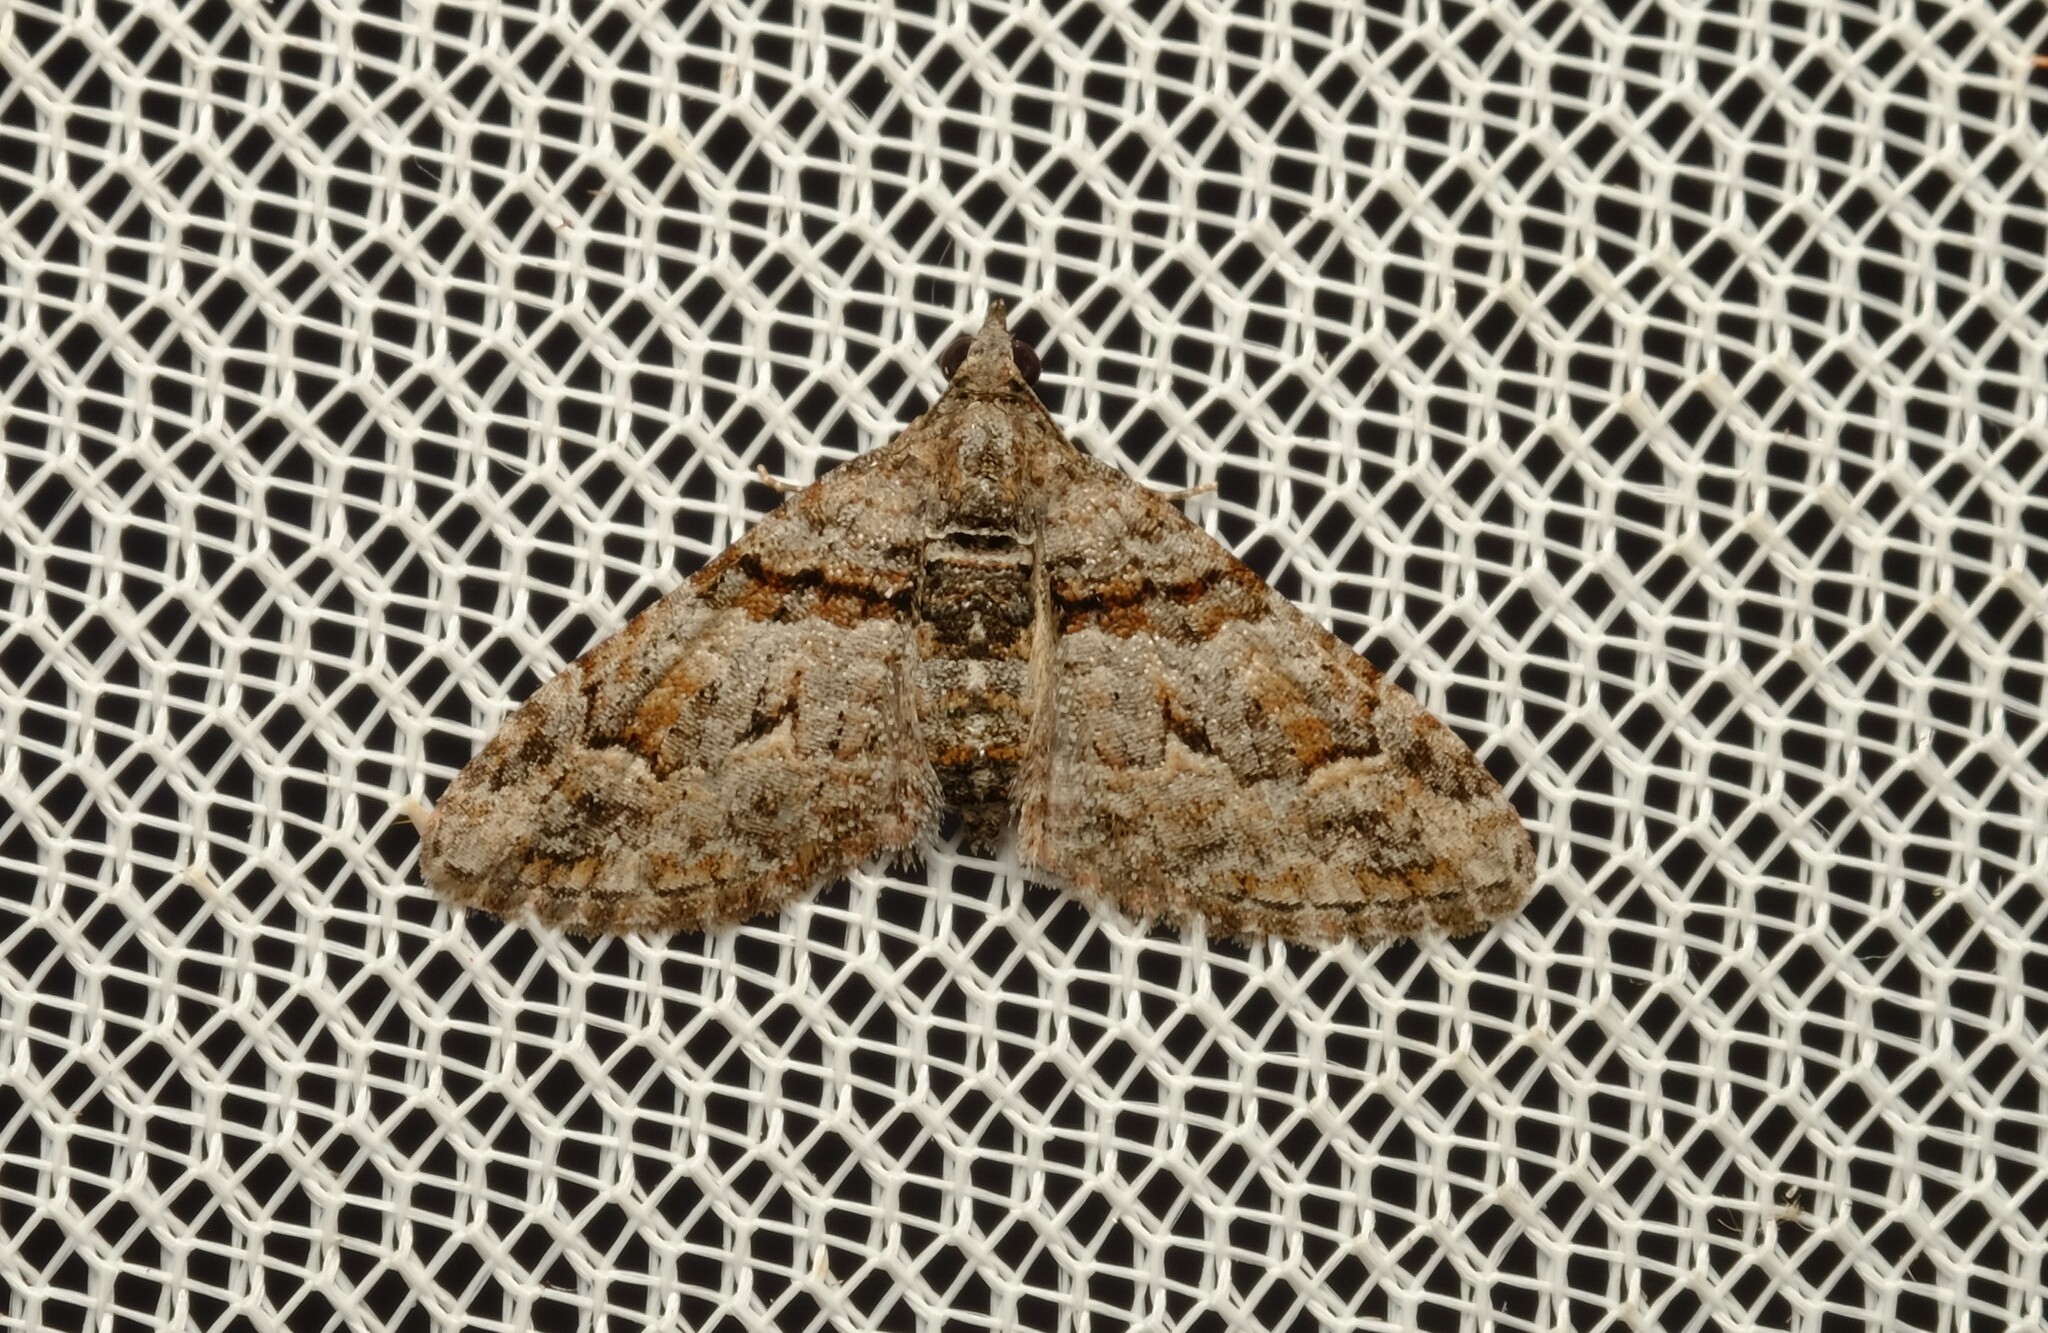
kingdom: Animalia
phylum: Arthropoda
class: Insecta
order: Lepidoptera
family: Geometridae
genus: Phrissogonus
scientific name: Phrissogonus laticostata
